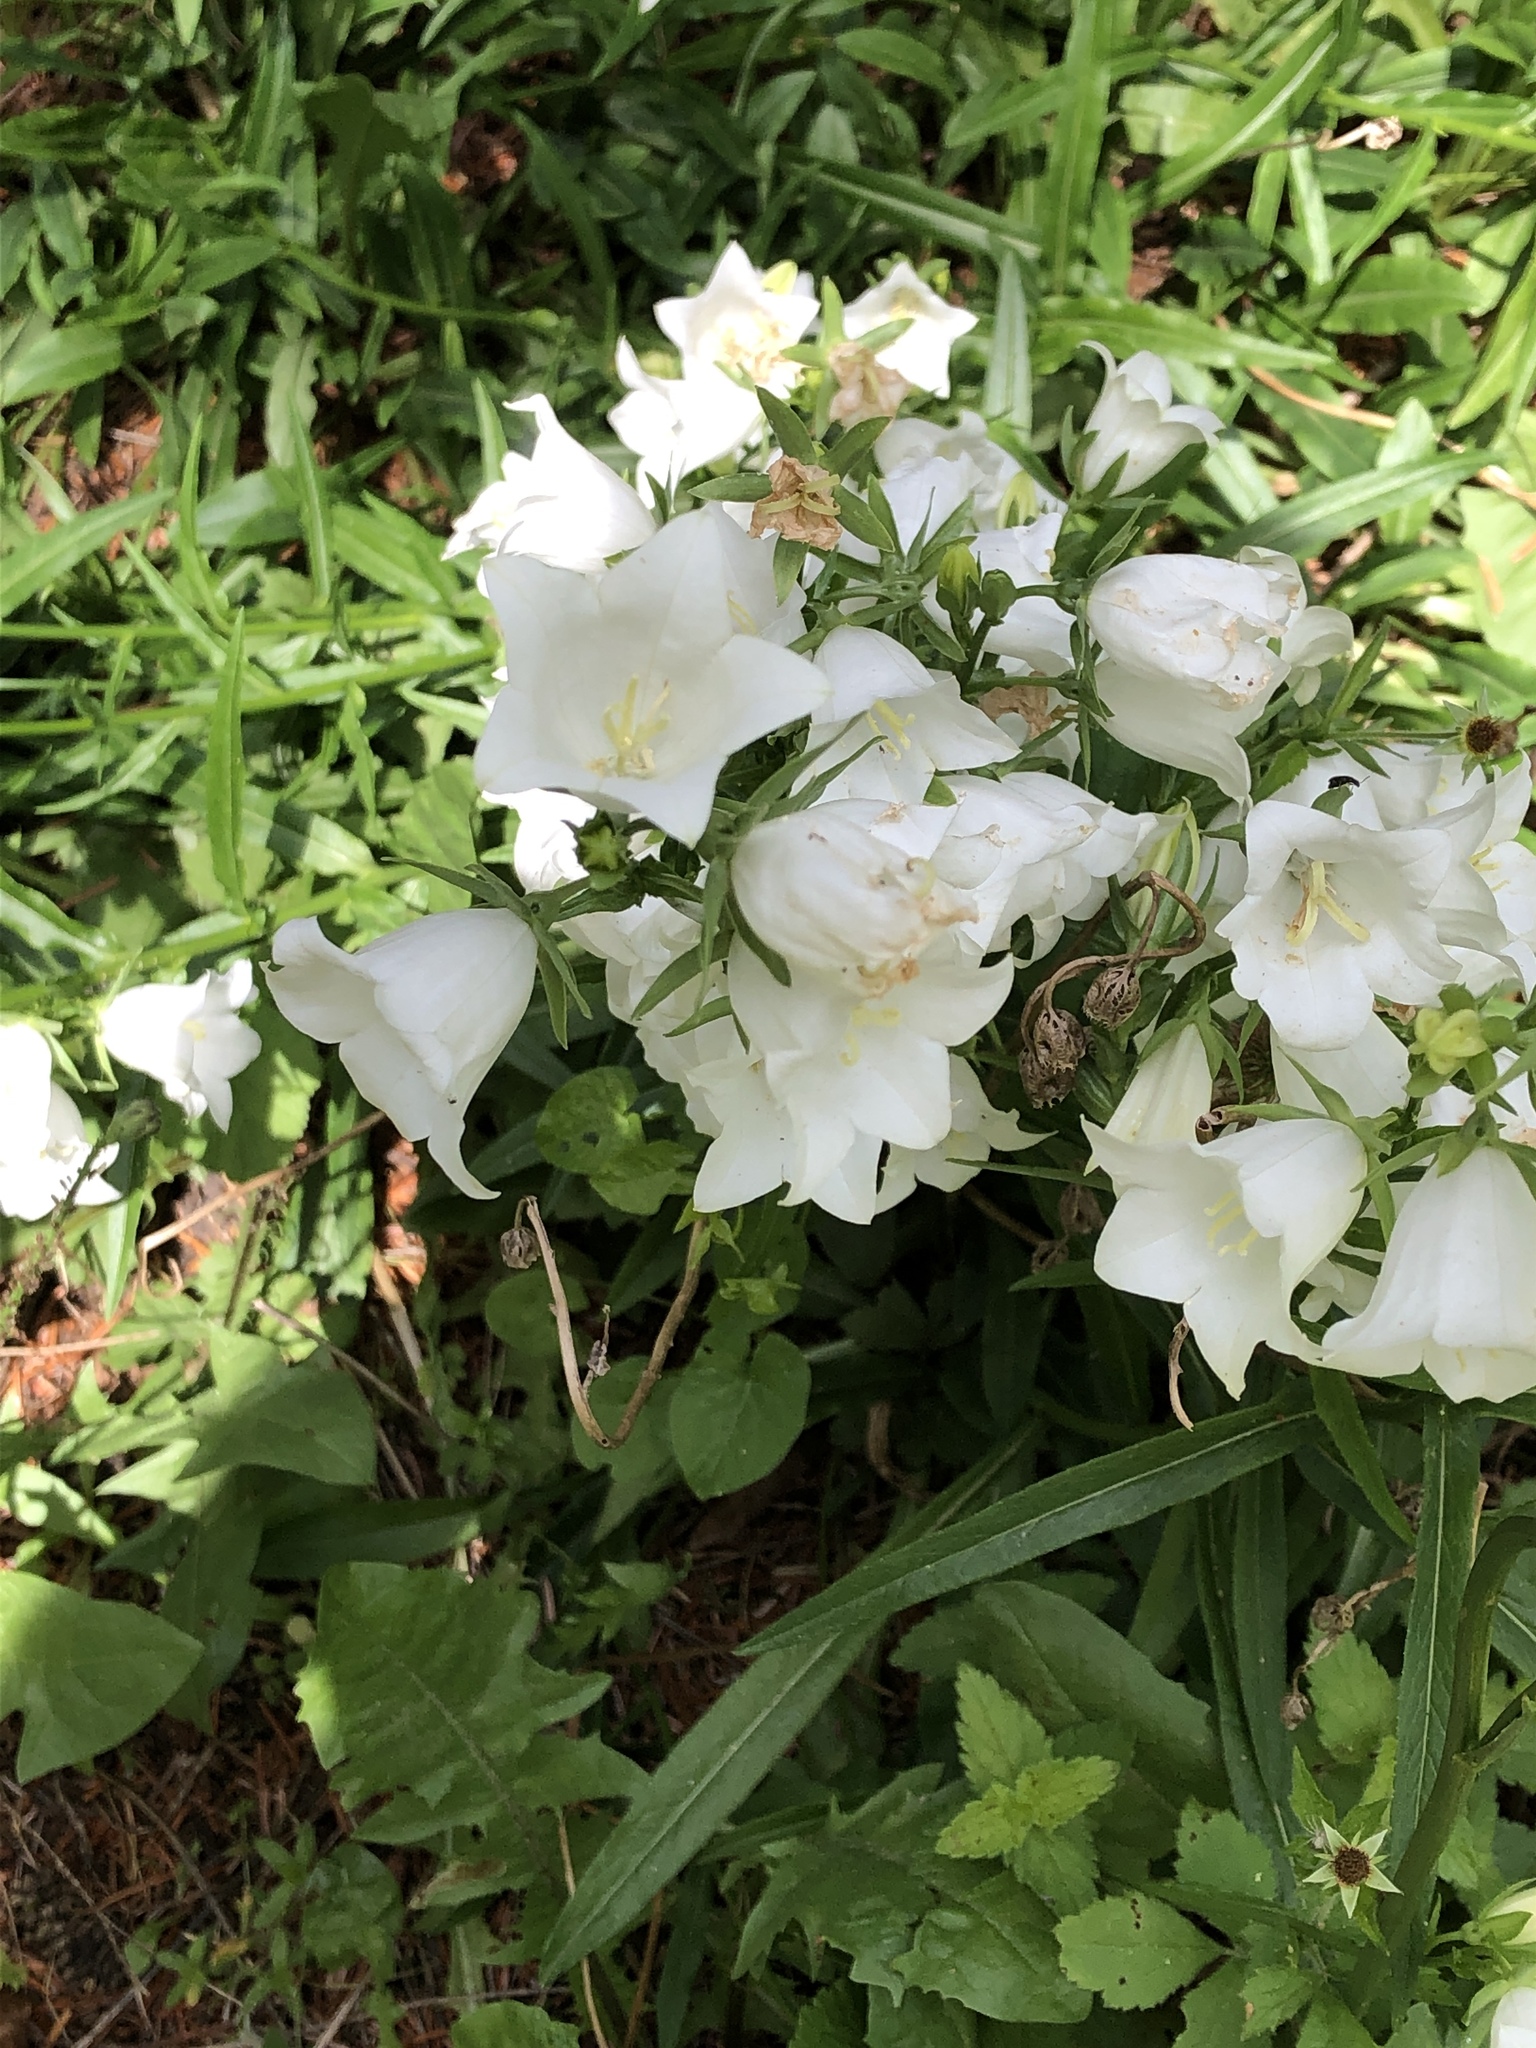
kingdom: Plantae
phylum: Tracheophyta
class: Magnoliopsida
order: Asterales
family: Campanulaceae
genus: Campanula
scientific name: Campanula persicifolia
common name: Peach-leaved bellflower
